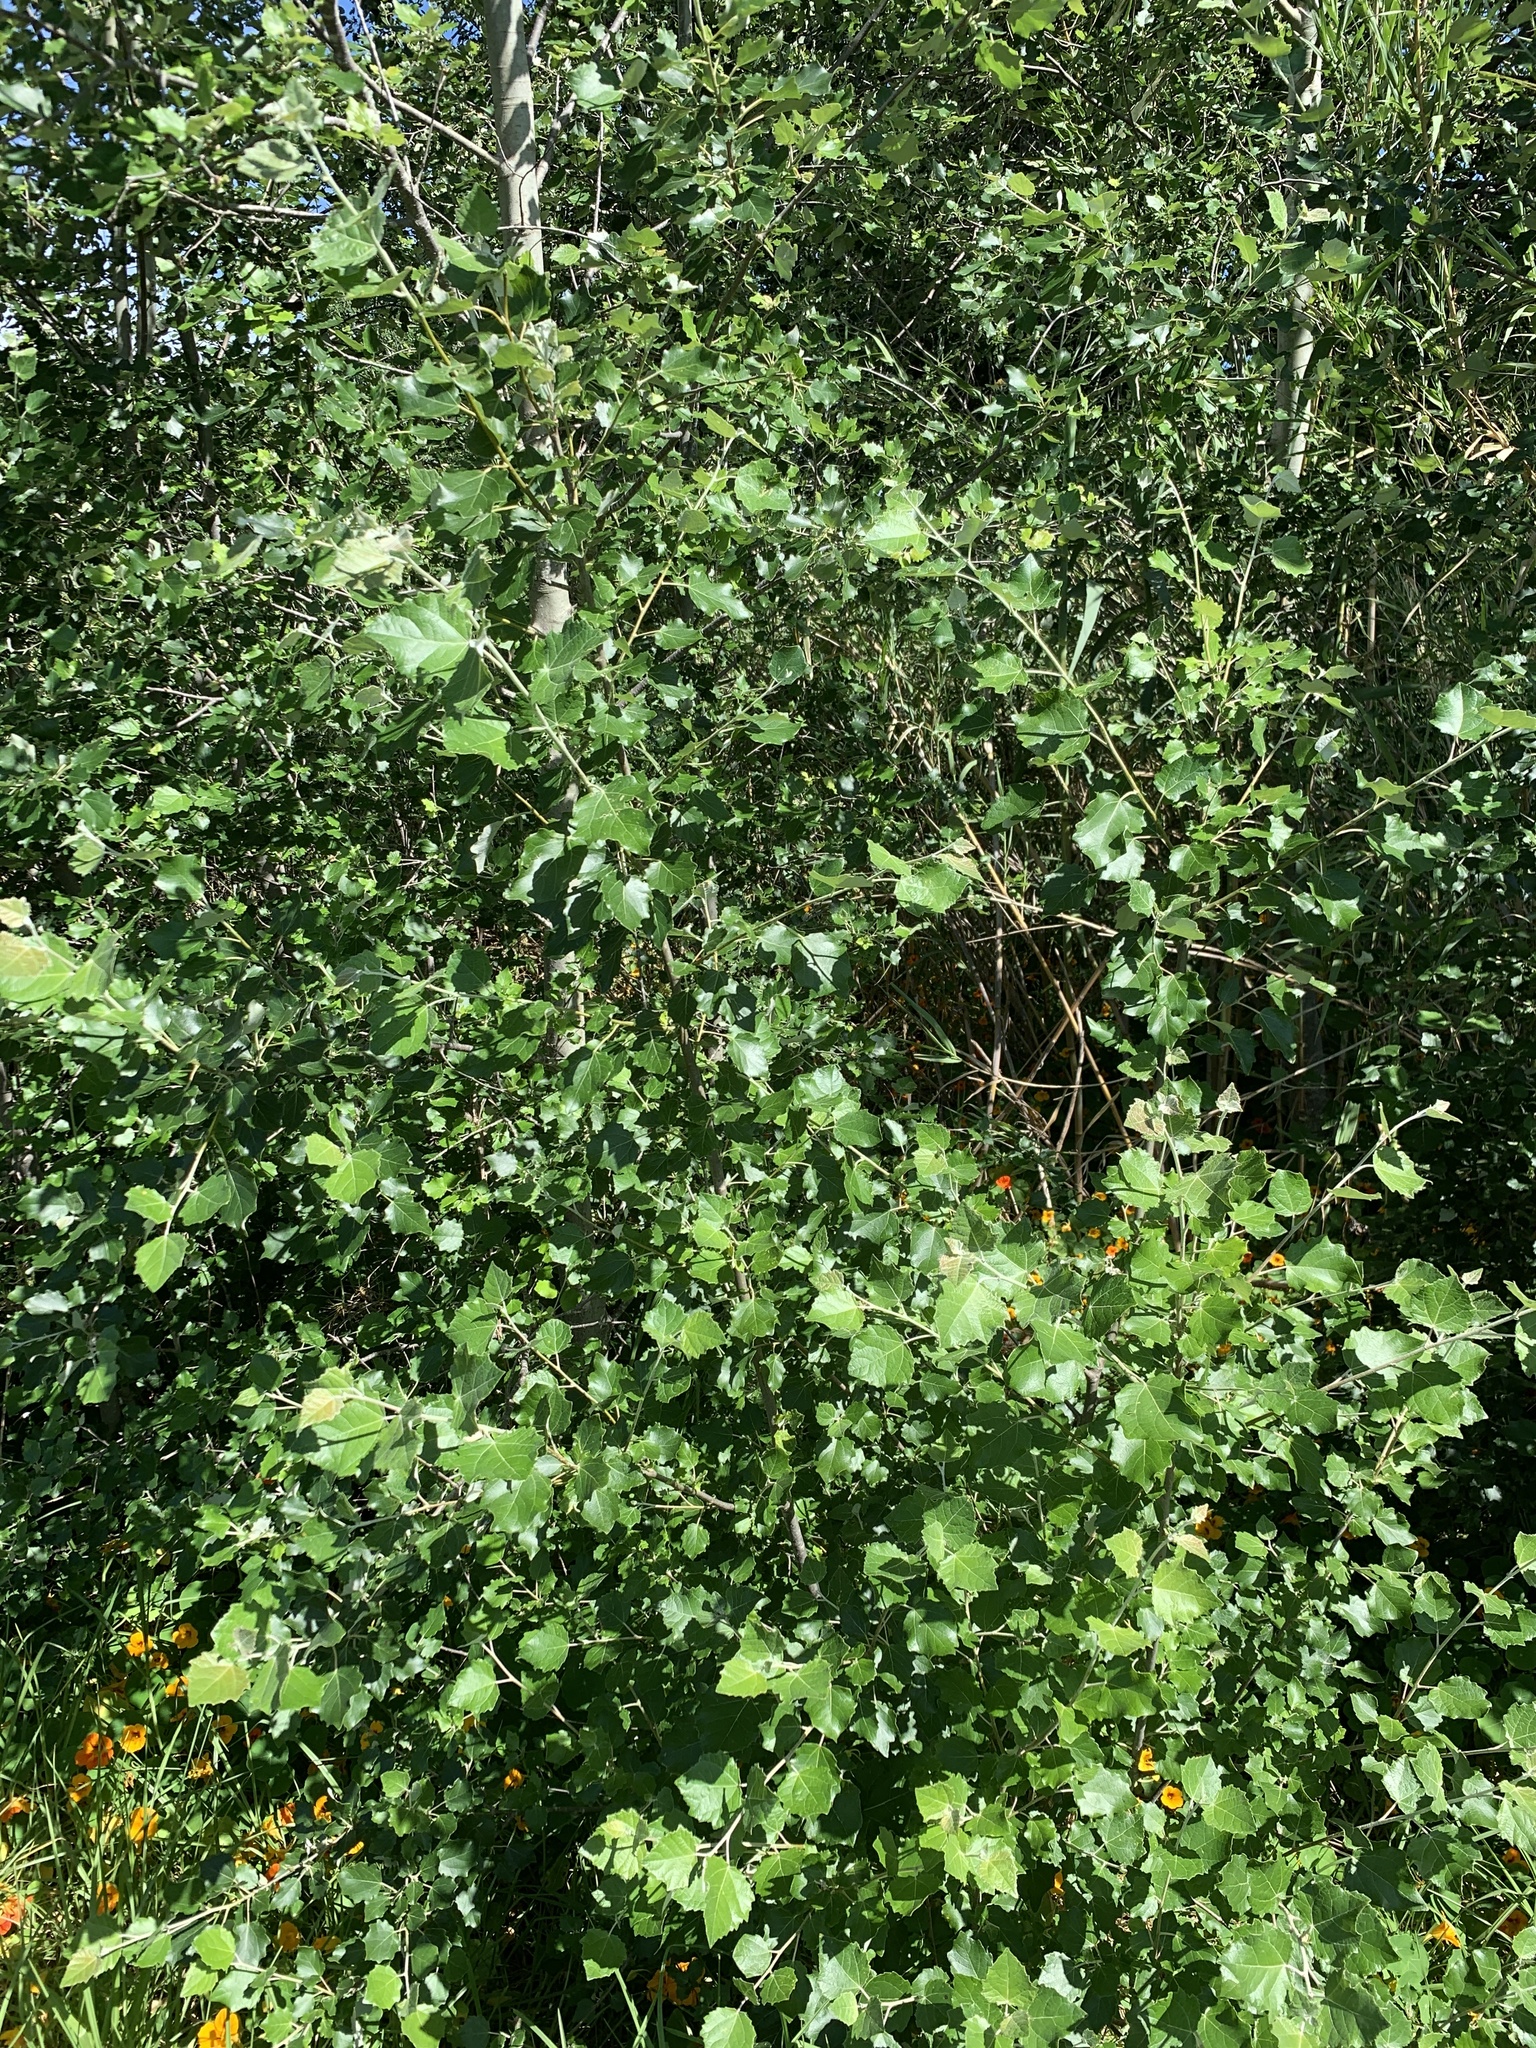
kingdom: Plantae
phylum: Tracheophyta
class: Magnoliopsida
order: Malpighiales
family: Salicaceae
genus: Populus
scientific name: Populus canescens
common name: Gray poplar
